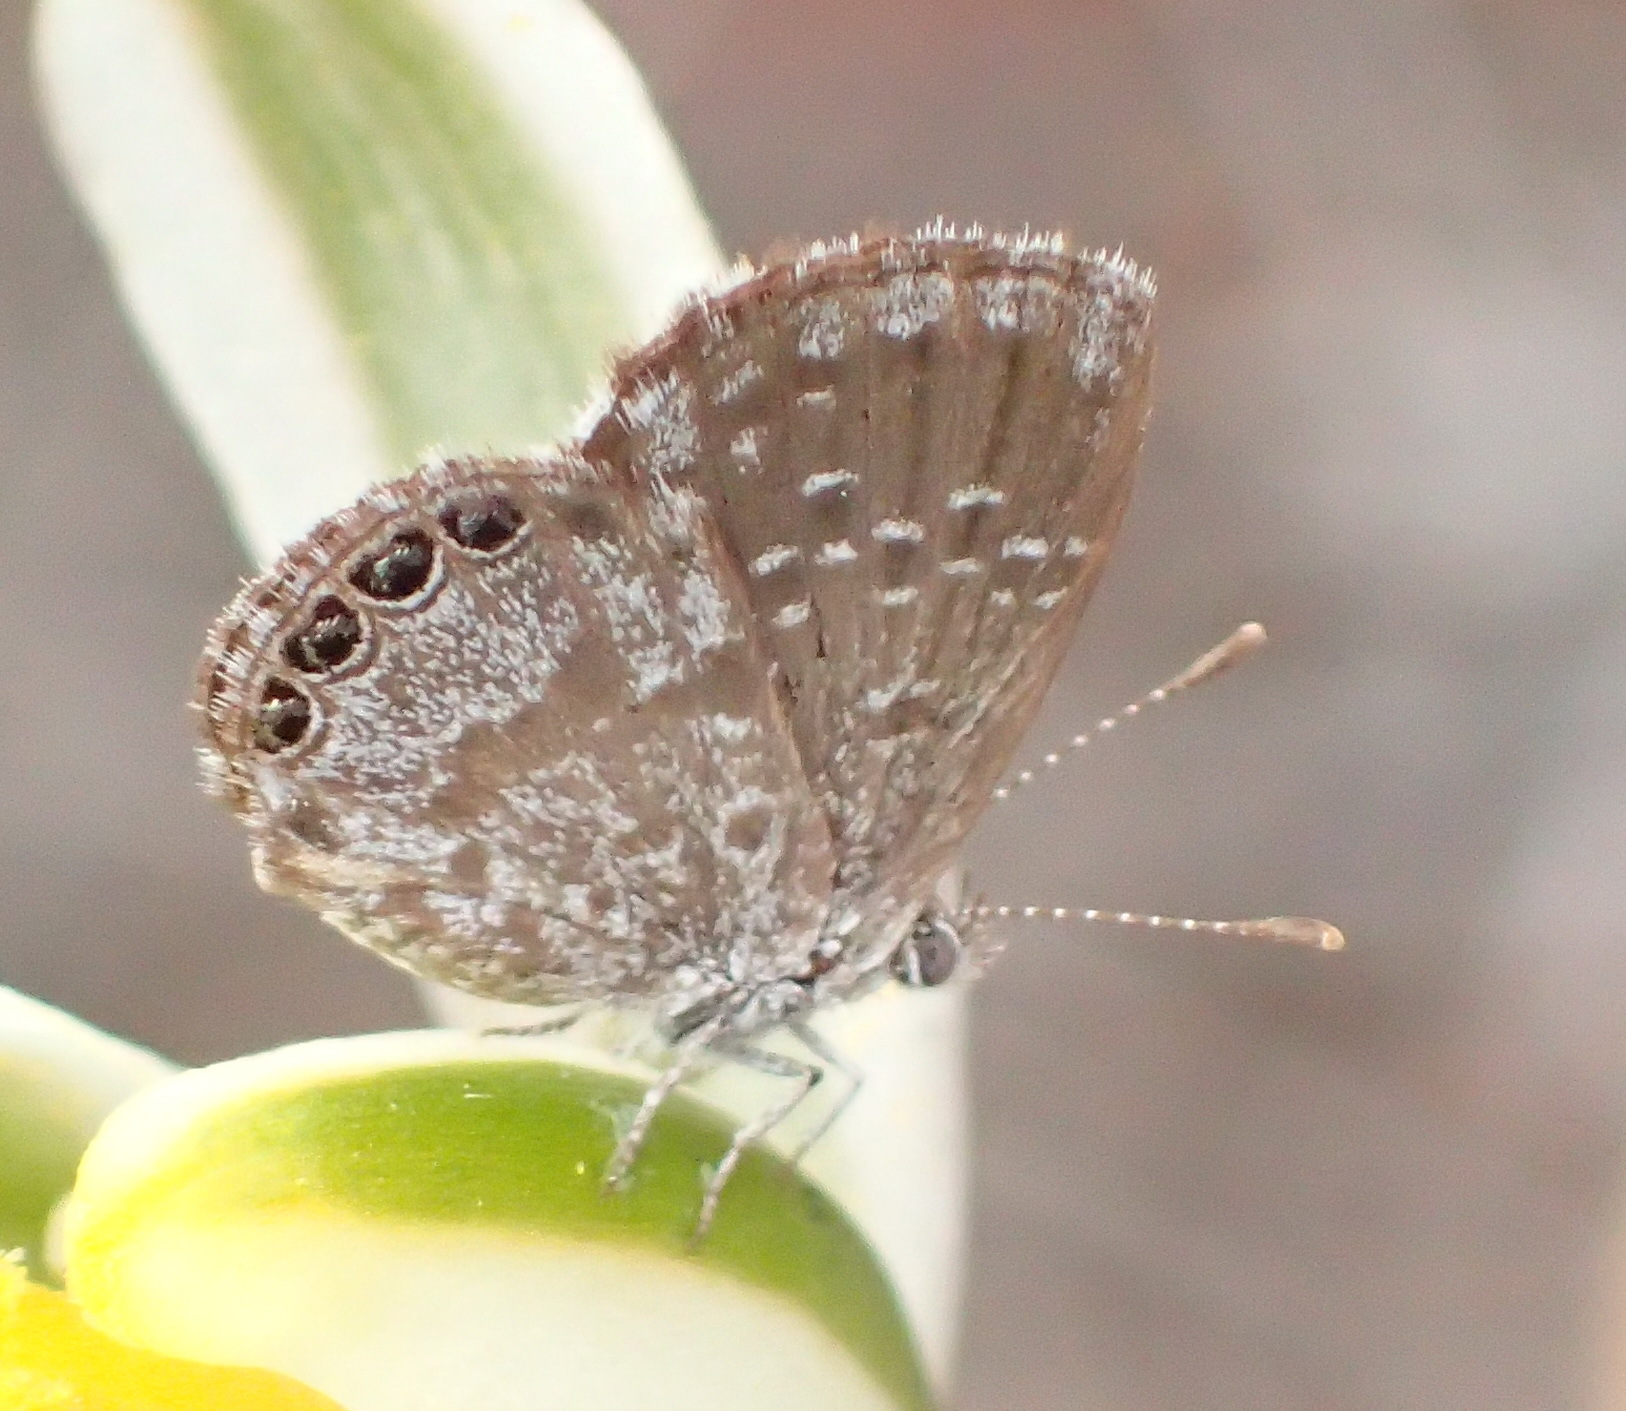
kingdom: Animalia
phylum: Arthropoda
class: Insecta
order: Lepidoptera
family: Lycaenidae
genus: Brephidium
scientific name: Brephidium metophis
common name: Tinktinkie blue
